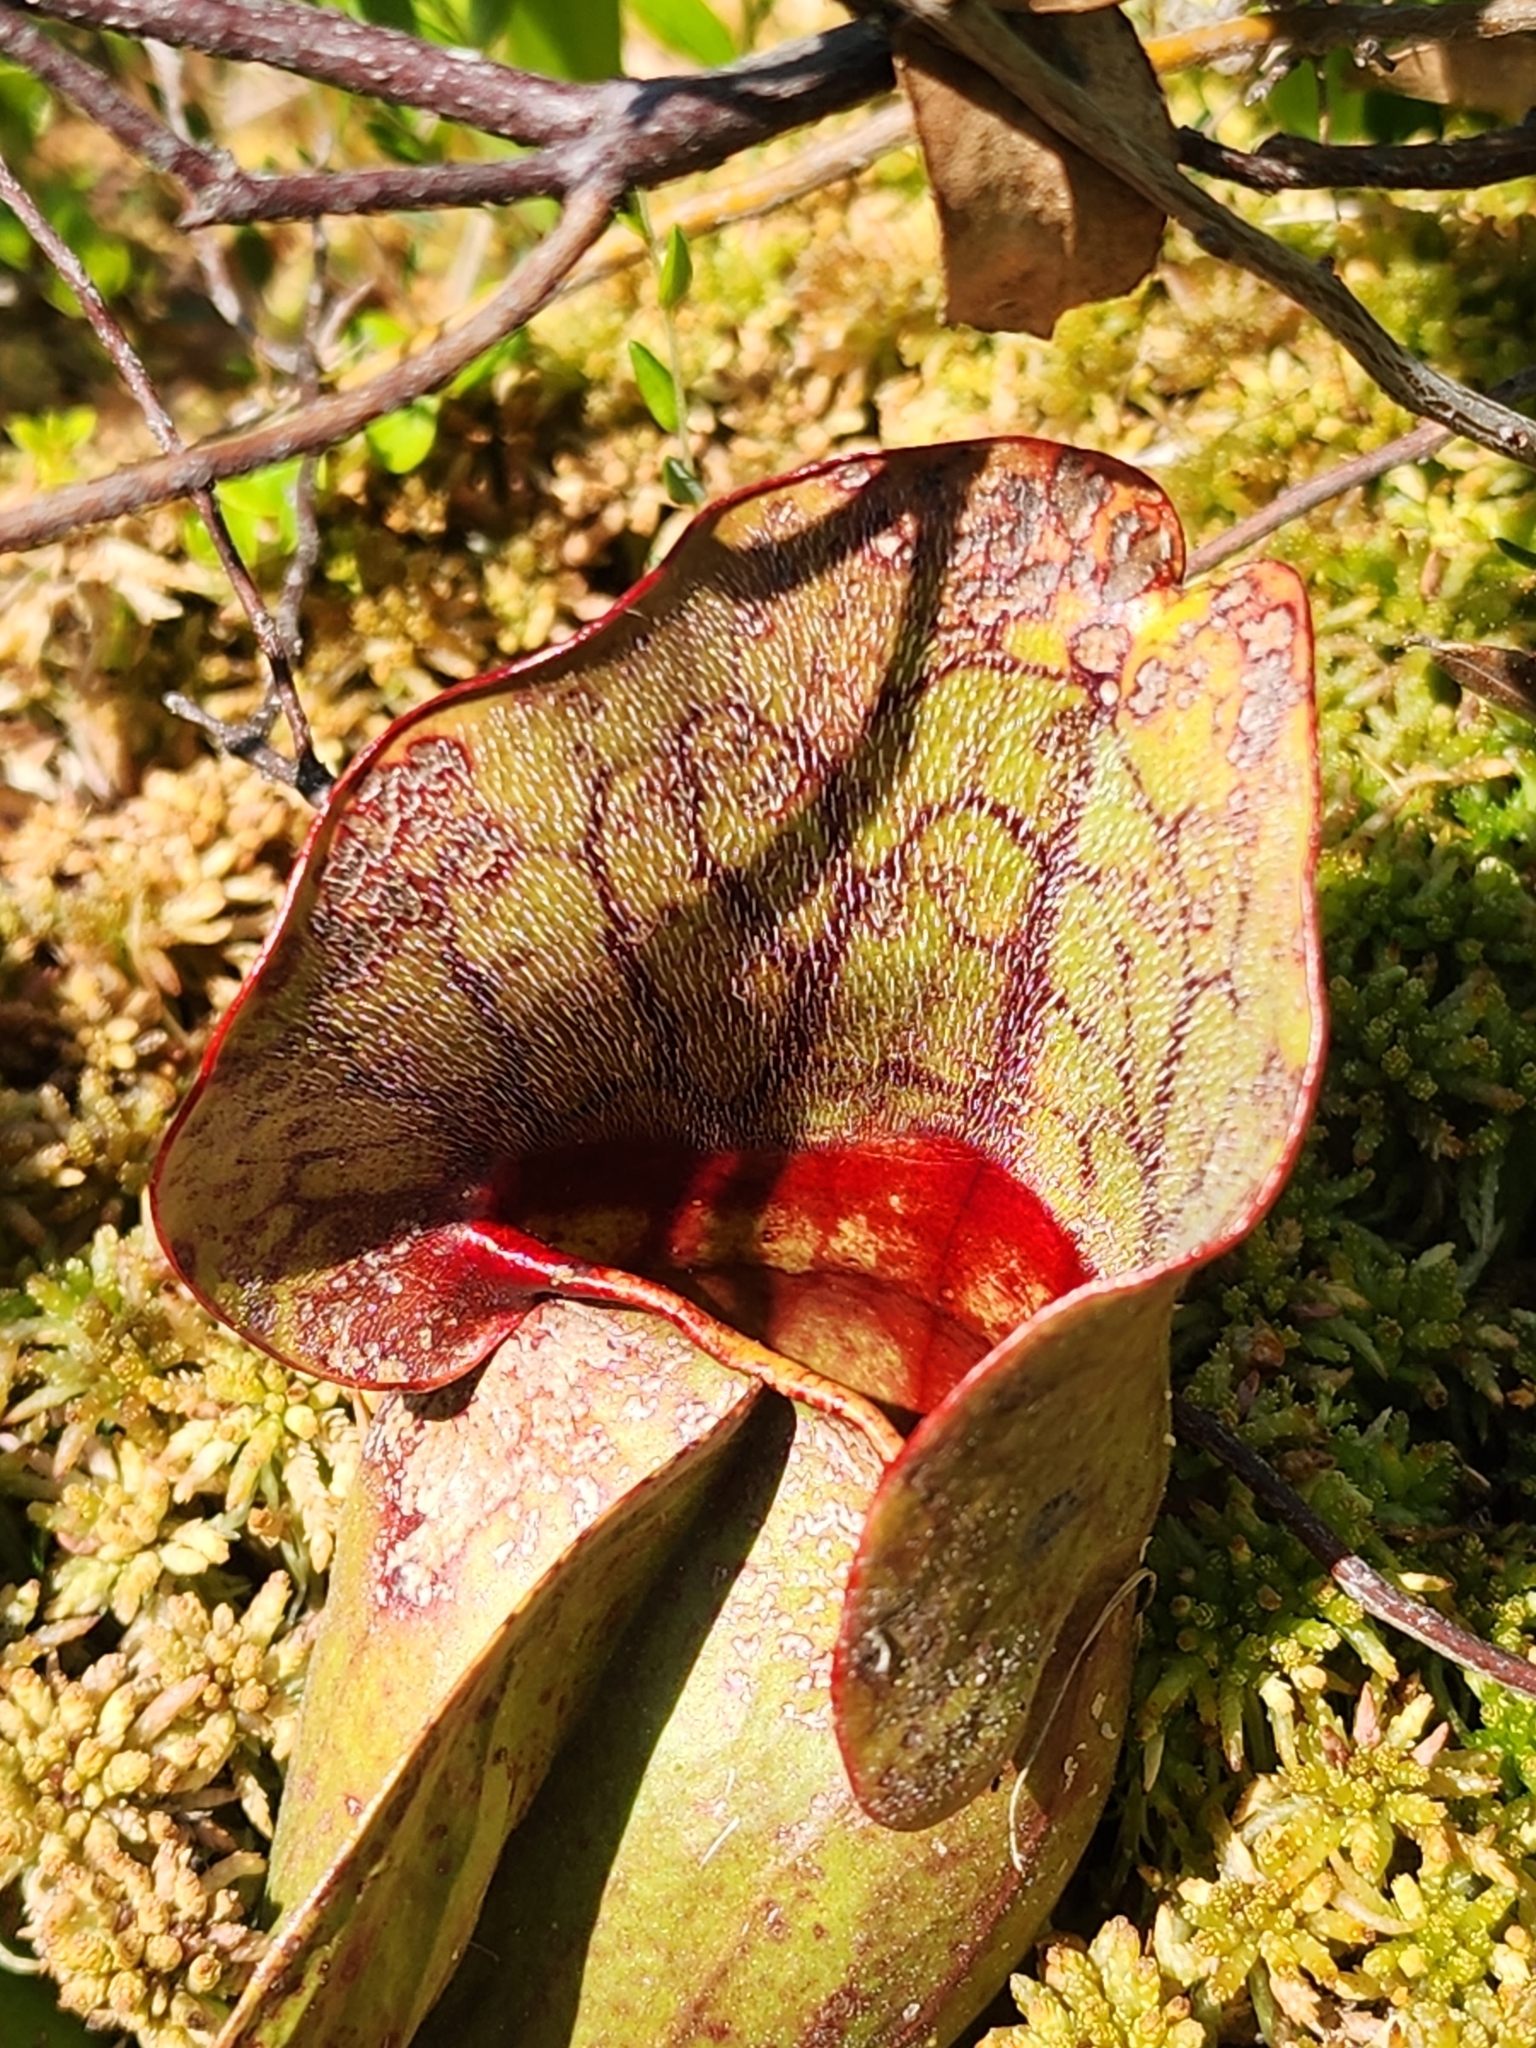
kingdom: Plantae
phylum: Tracheophyta
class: Magnoliopsida
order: Ericales
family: Sarraceniaceae
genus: Sarracenia
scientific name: Sarracenia purpurea
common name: Pitcherplant
